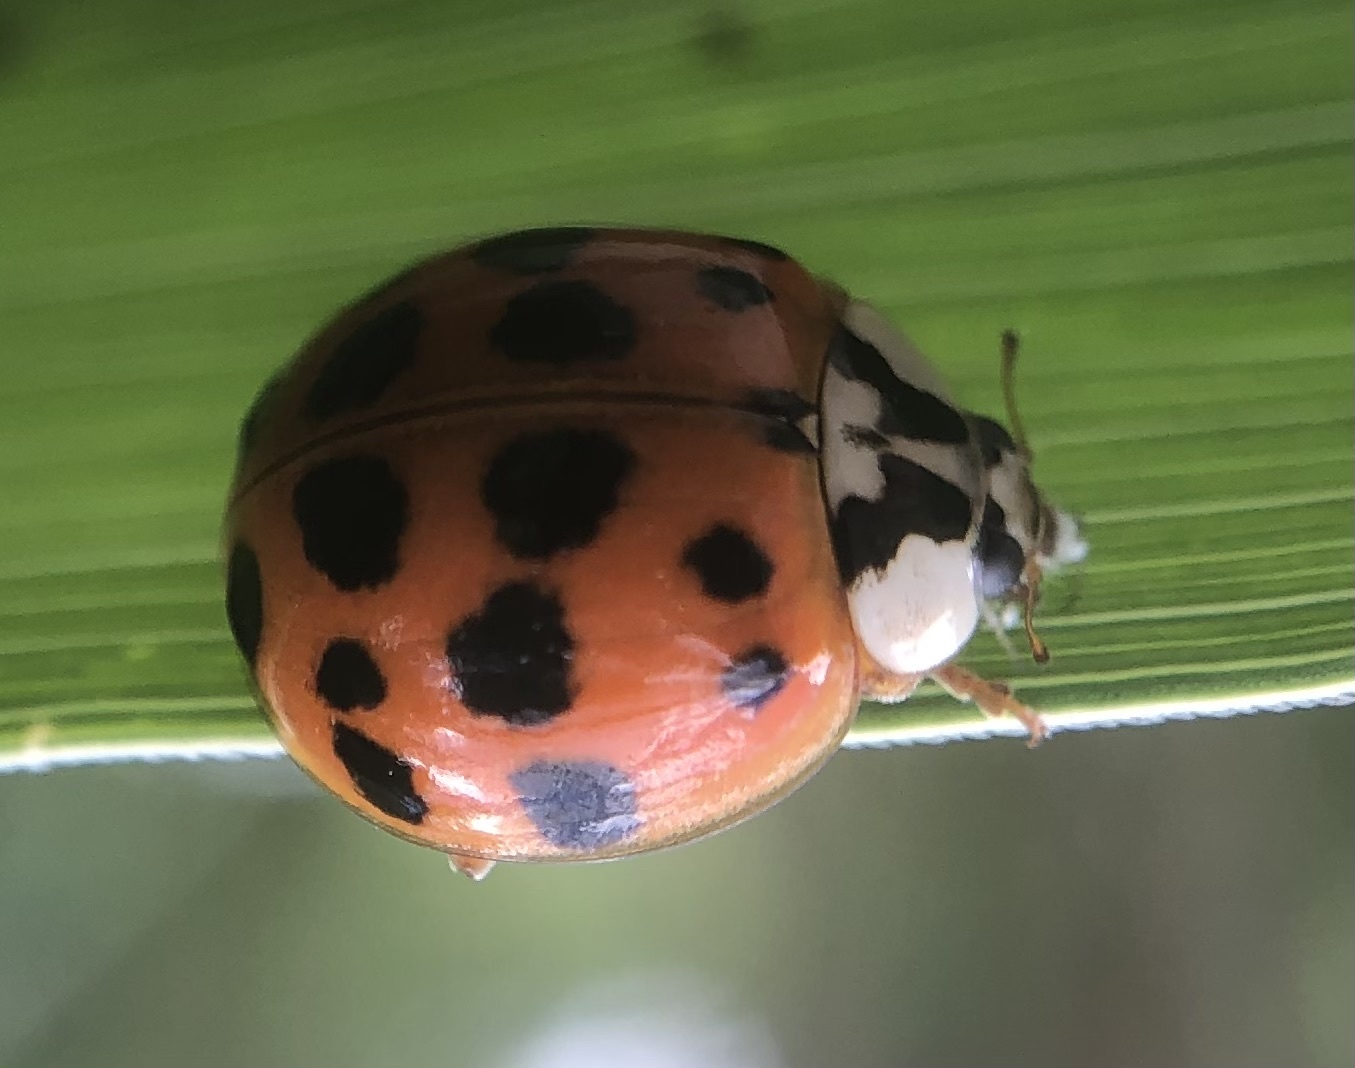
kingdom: Animalia
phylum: Arthropoda
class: Insecta
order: Coleoptera
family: Coccinellidae
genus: Harmonia
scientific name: Harmonia axyridis
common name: Harlequin ladybird
